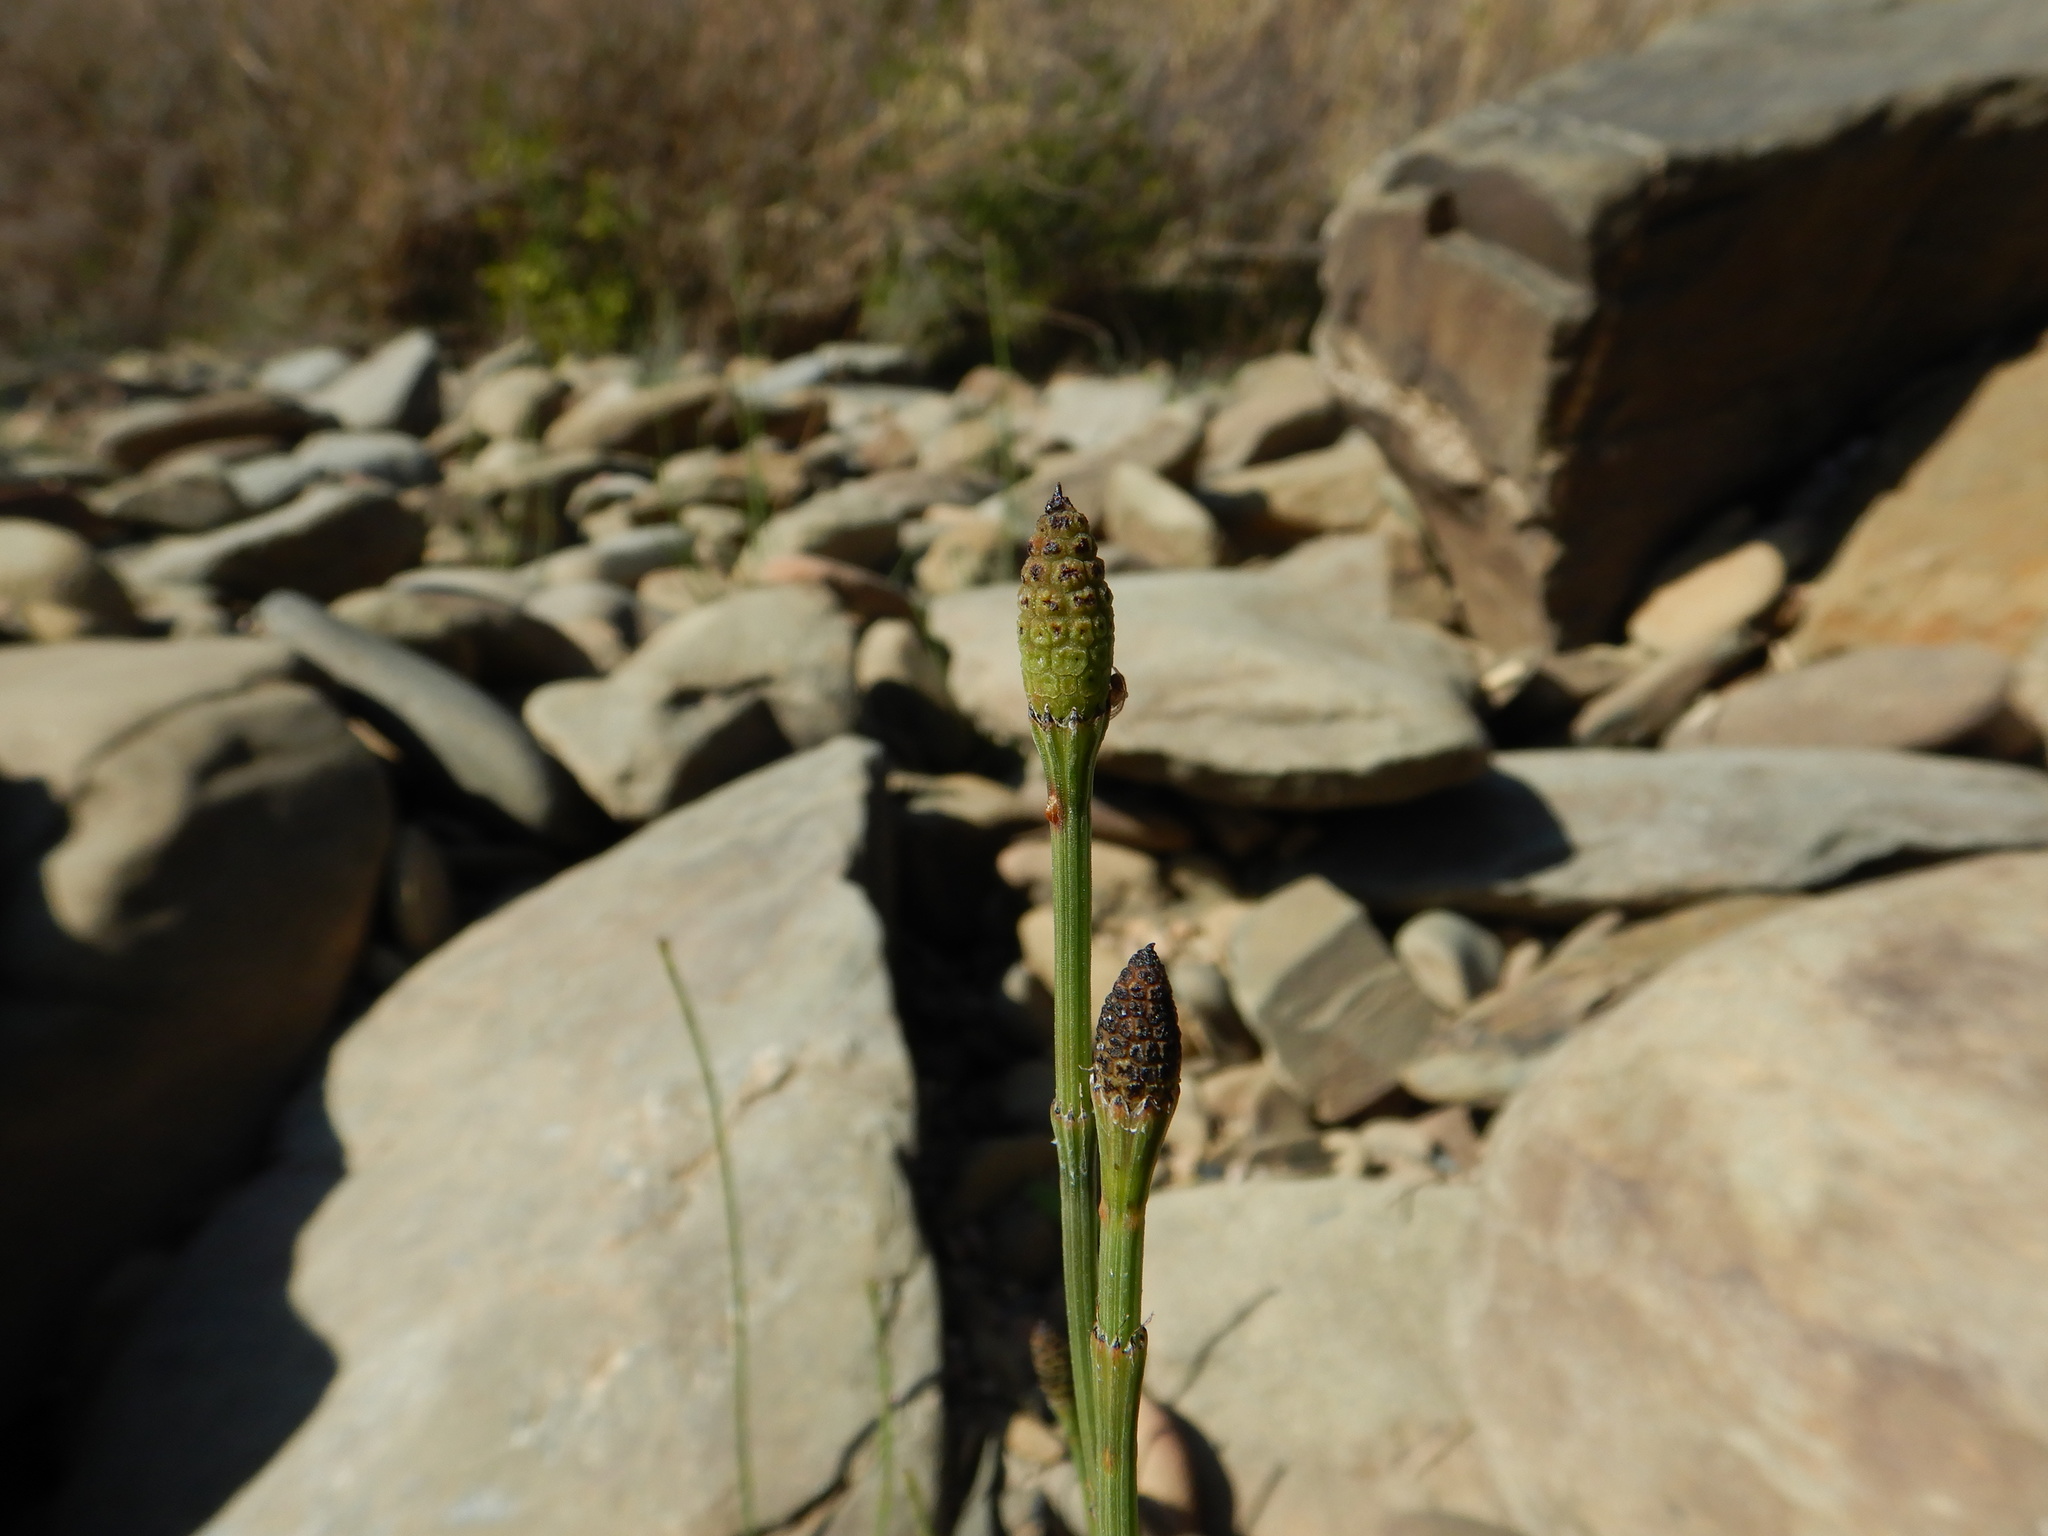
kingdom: Plantae
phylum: Tracheophyta
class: Polypodiopsida
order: Equisetales
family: Equisetaceae
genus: Equisetum
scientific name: Equisetum ramosissimum
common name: Branched horsetail
